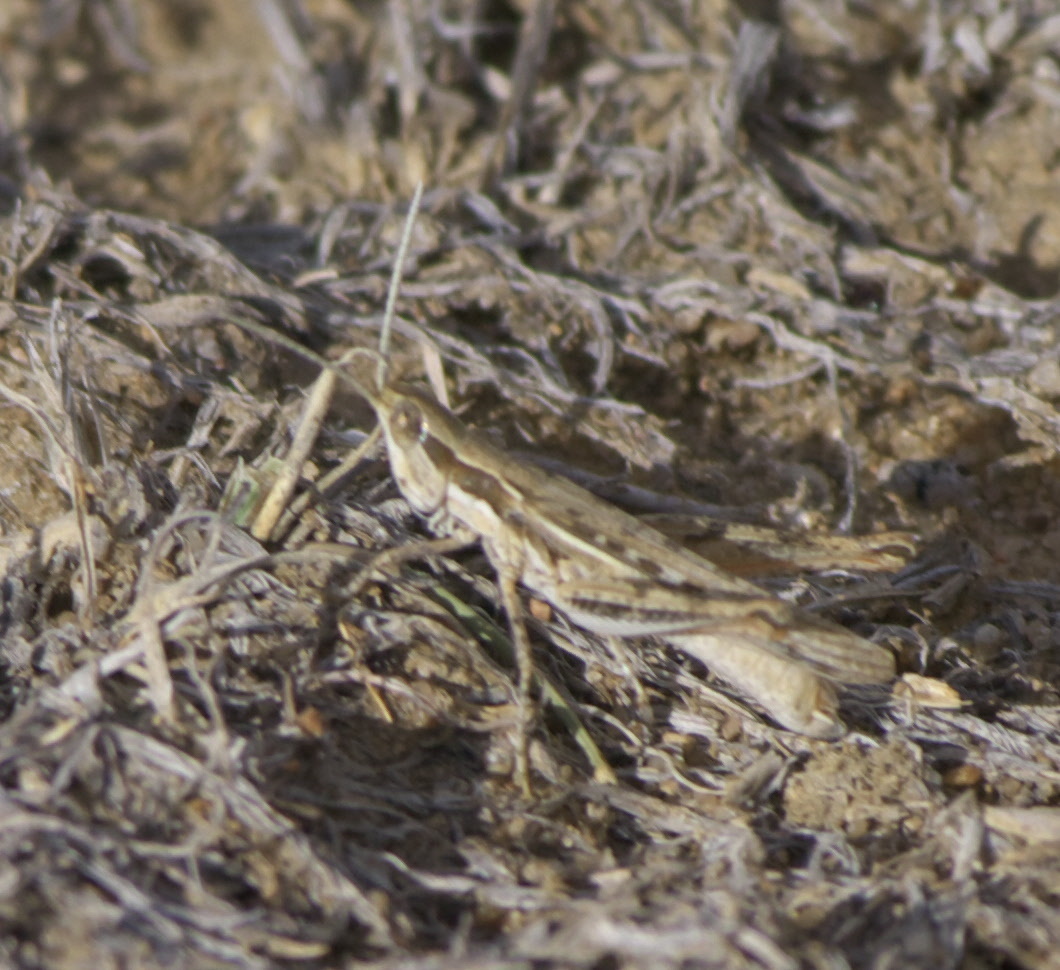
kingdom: Animalia
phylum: Arthropoda
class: Insecta
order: Orthoptera
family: Acrididae
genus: Cordillacris
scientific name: Cordillacris occipitalis
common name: Spotted-winged grasshopper
